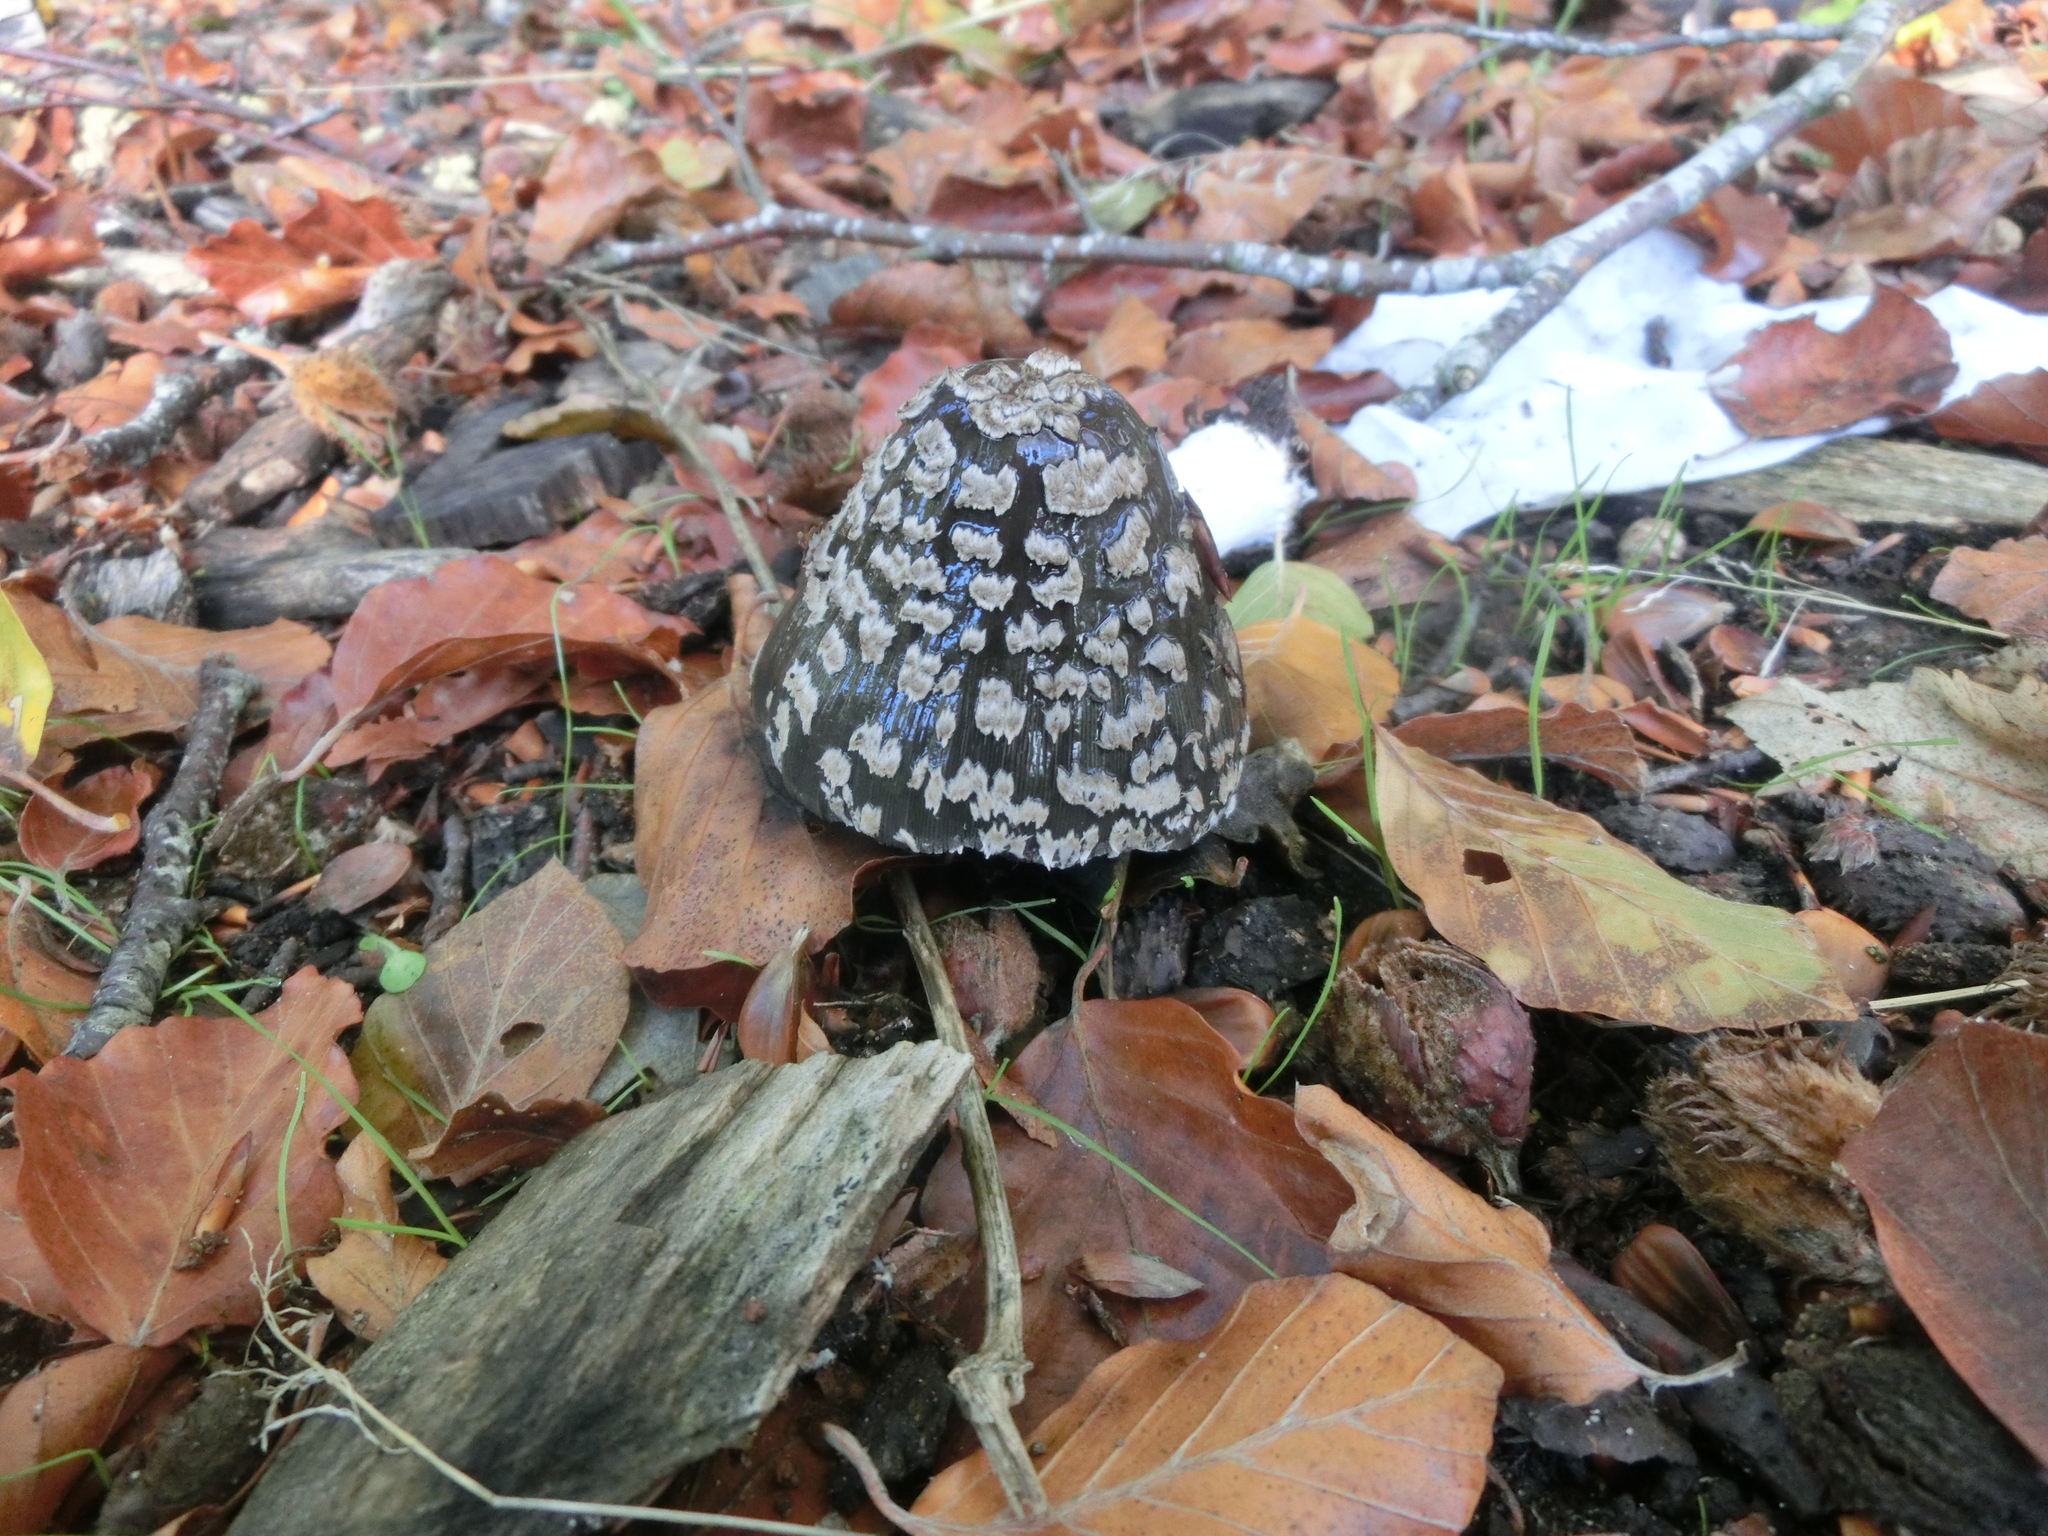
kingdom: Fungi
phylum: Basidiomycota
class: Agaricomycetes
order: Agaricales
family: Psathyrellaceae
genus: Coprinopsis
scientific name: Coprinopsis picacea
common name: Magpie inkcap
